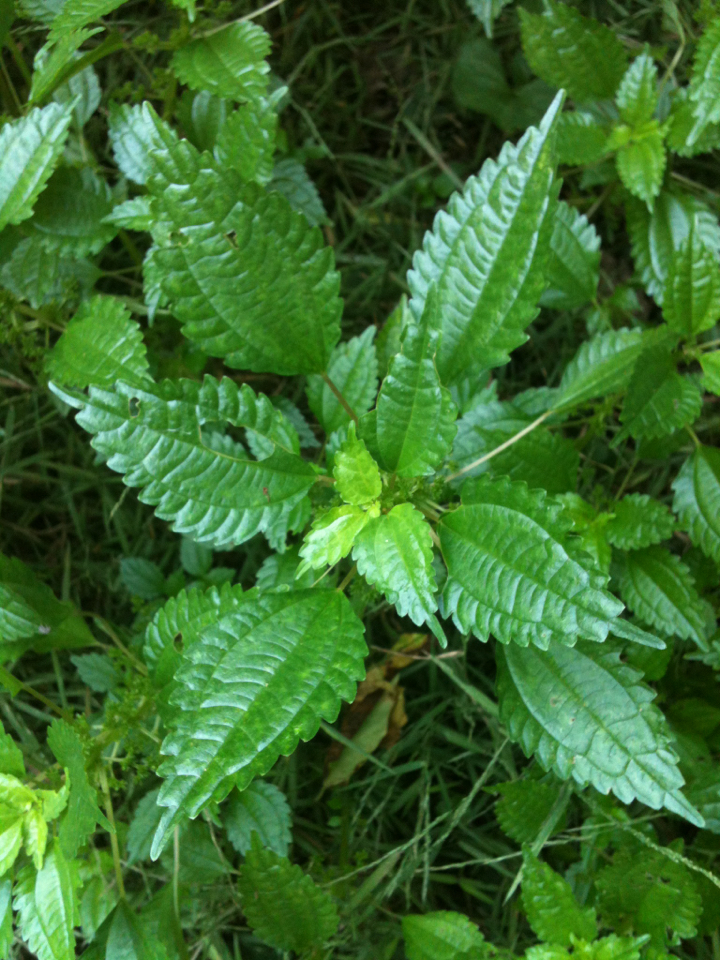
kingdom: Plantae
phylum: Tracheophyta
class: Magnoliopsida
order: Rosales
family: Urticaceae
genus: Pilea
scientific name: Pilea pumila
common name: Clearweed
